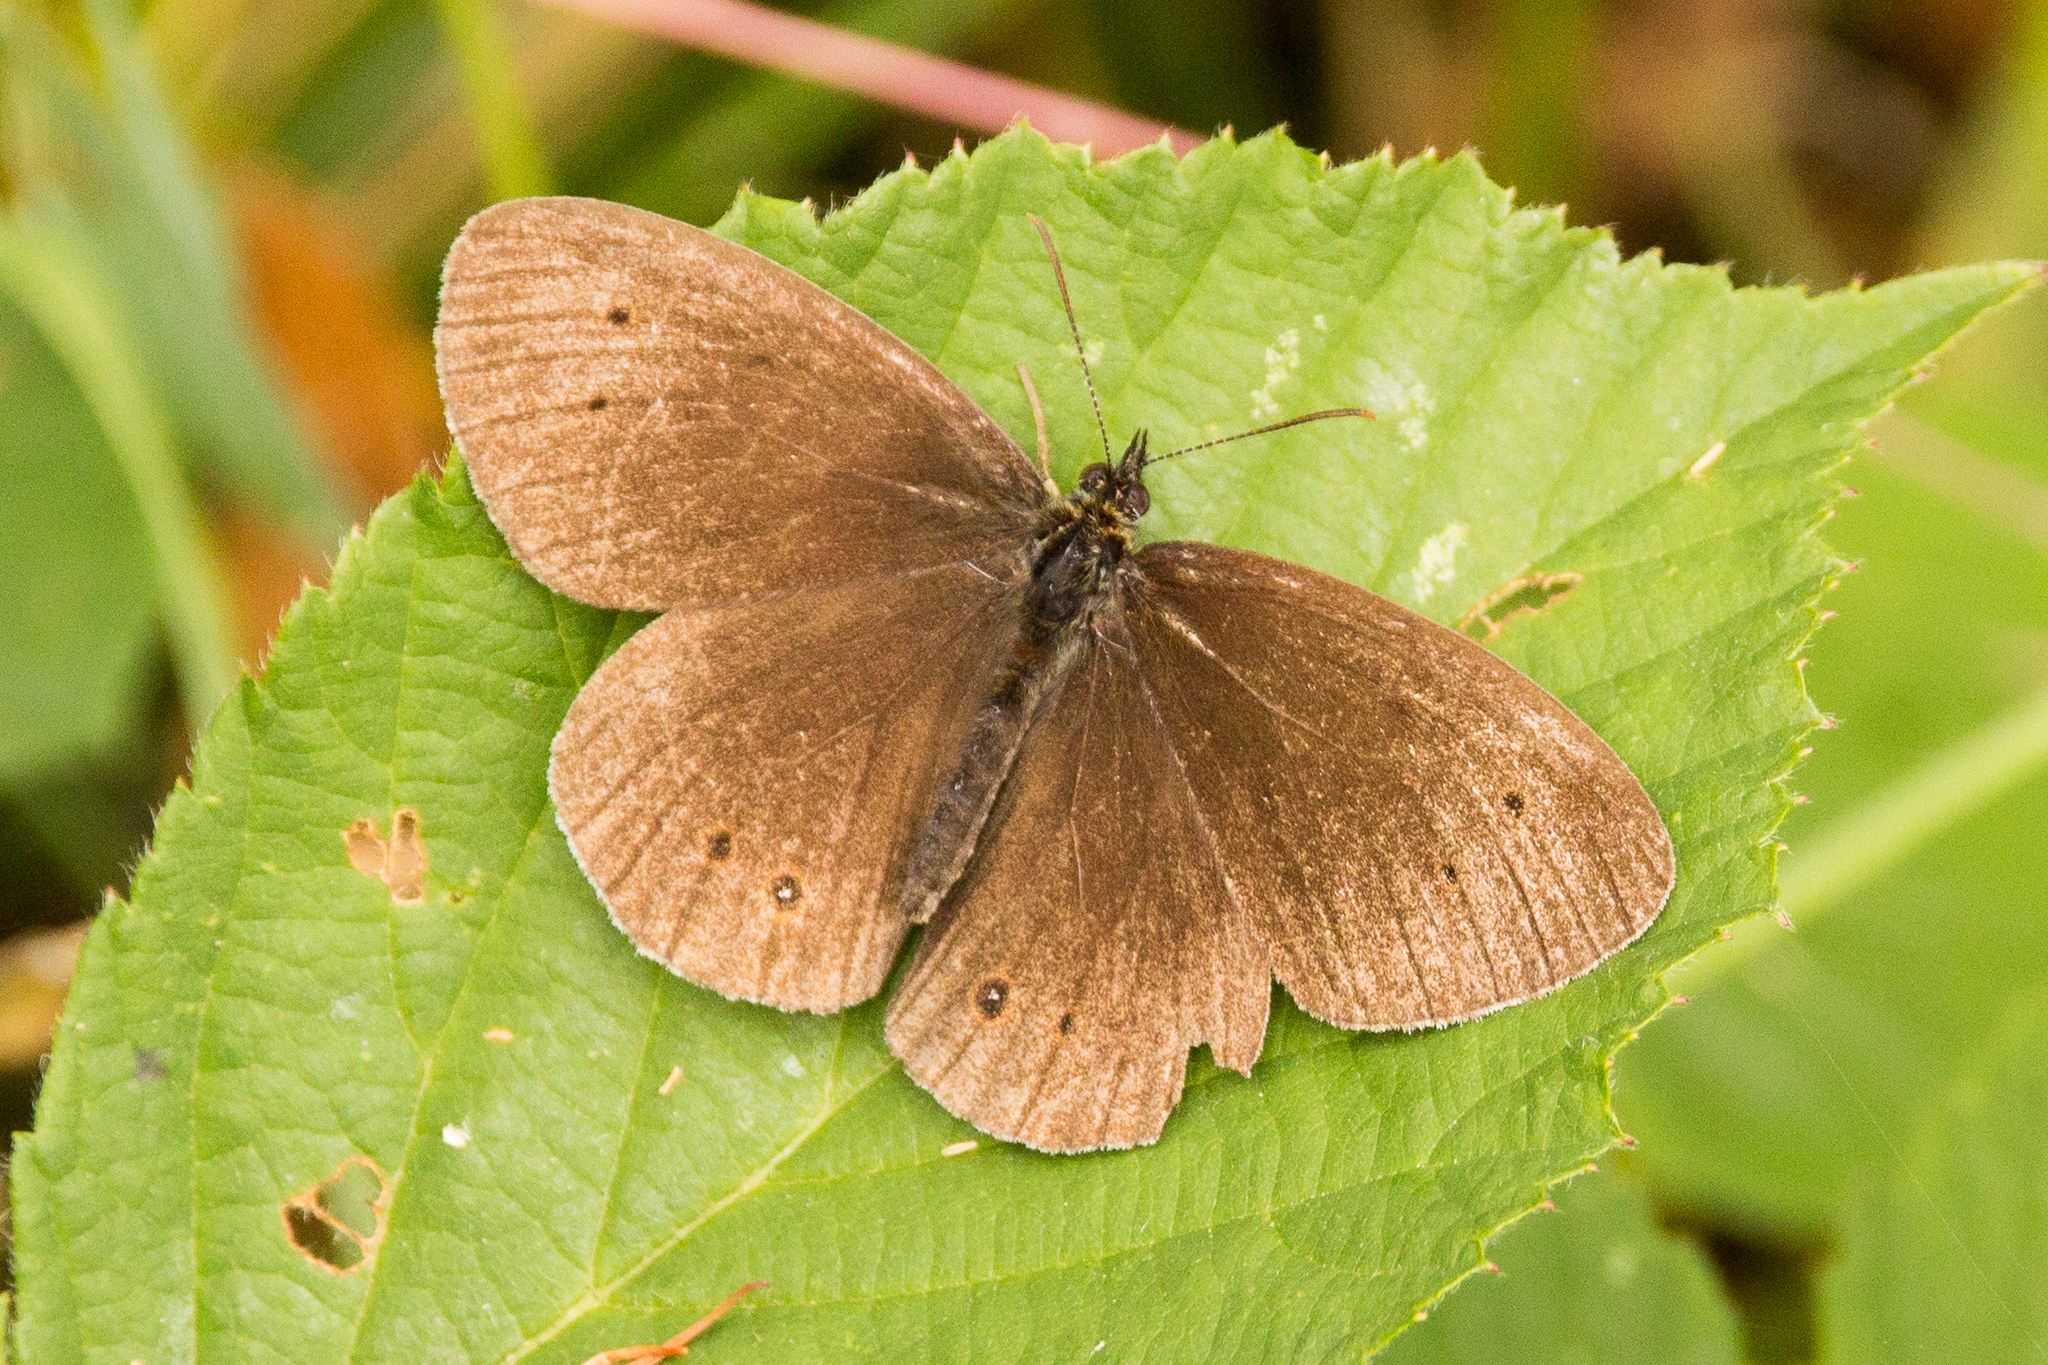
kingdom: Animalia
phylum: Arthropoda
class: Insecta
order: Lepidoptera
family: Nymphalidae
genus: Aphantopus
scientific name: Aphantopus hyperantus
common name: Ringlet
